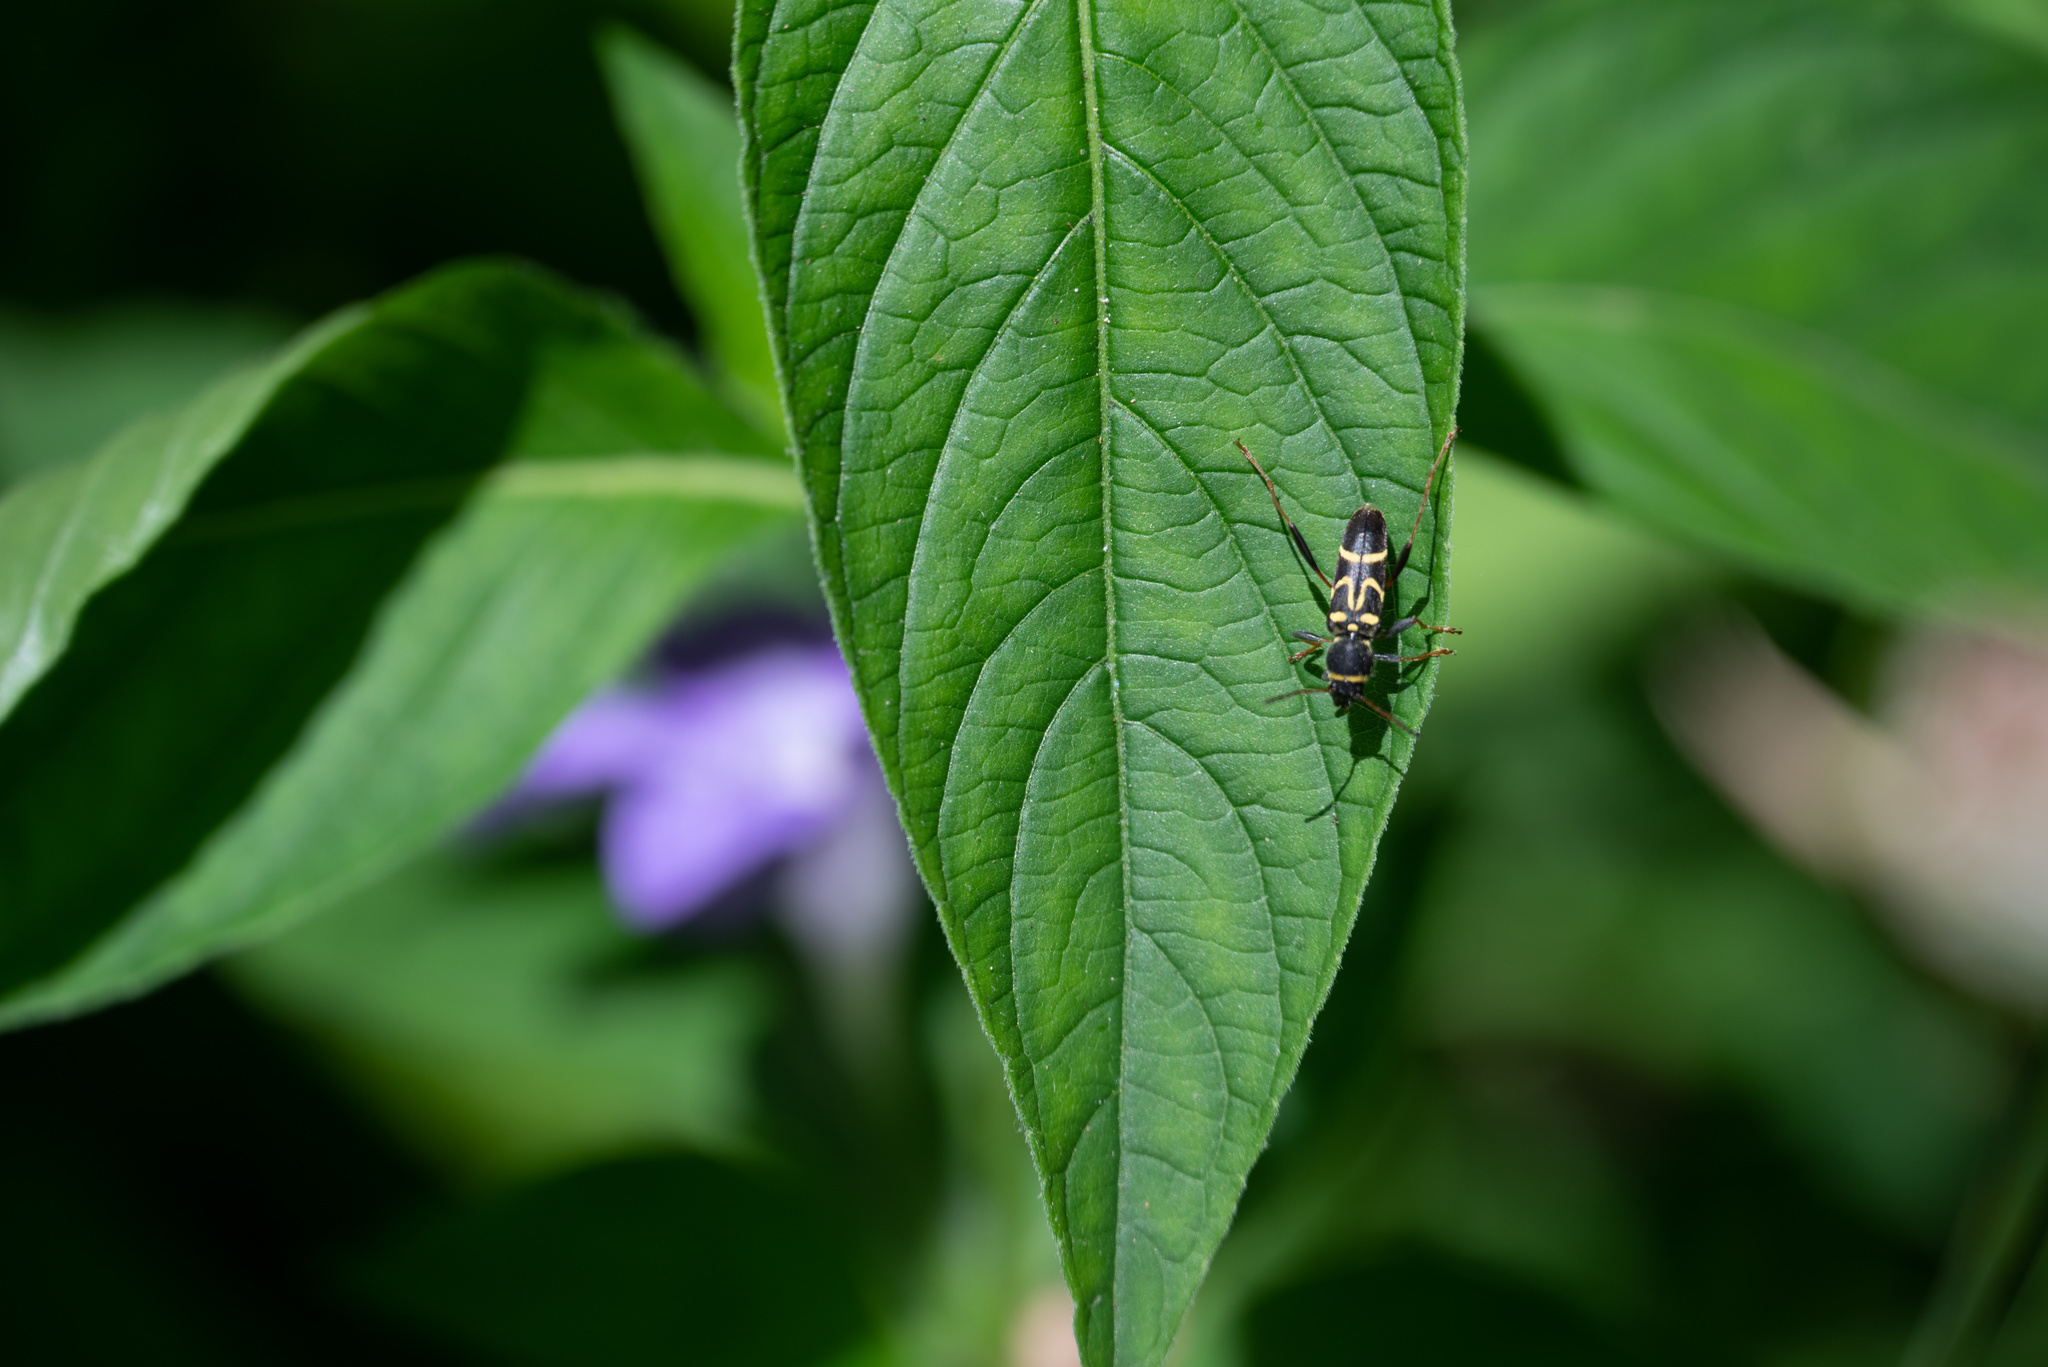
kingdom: Animalia
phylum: Arthropoda
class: Insecta
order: Coleoptera
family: Cerambycidae
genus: Clytus
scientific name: Clytus ruricola
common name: Round-necked longhorn beetle
